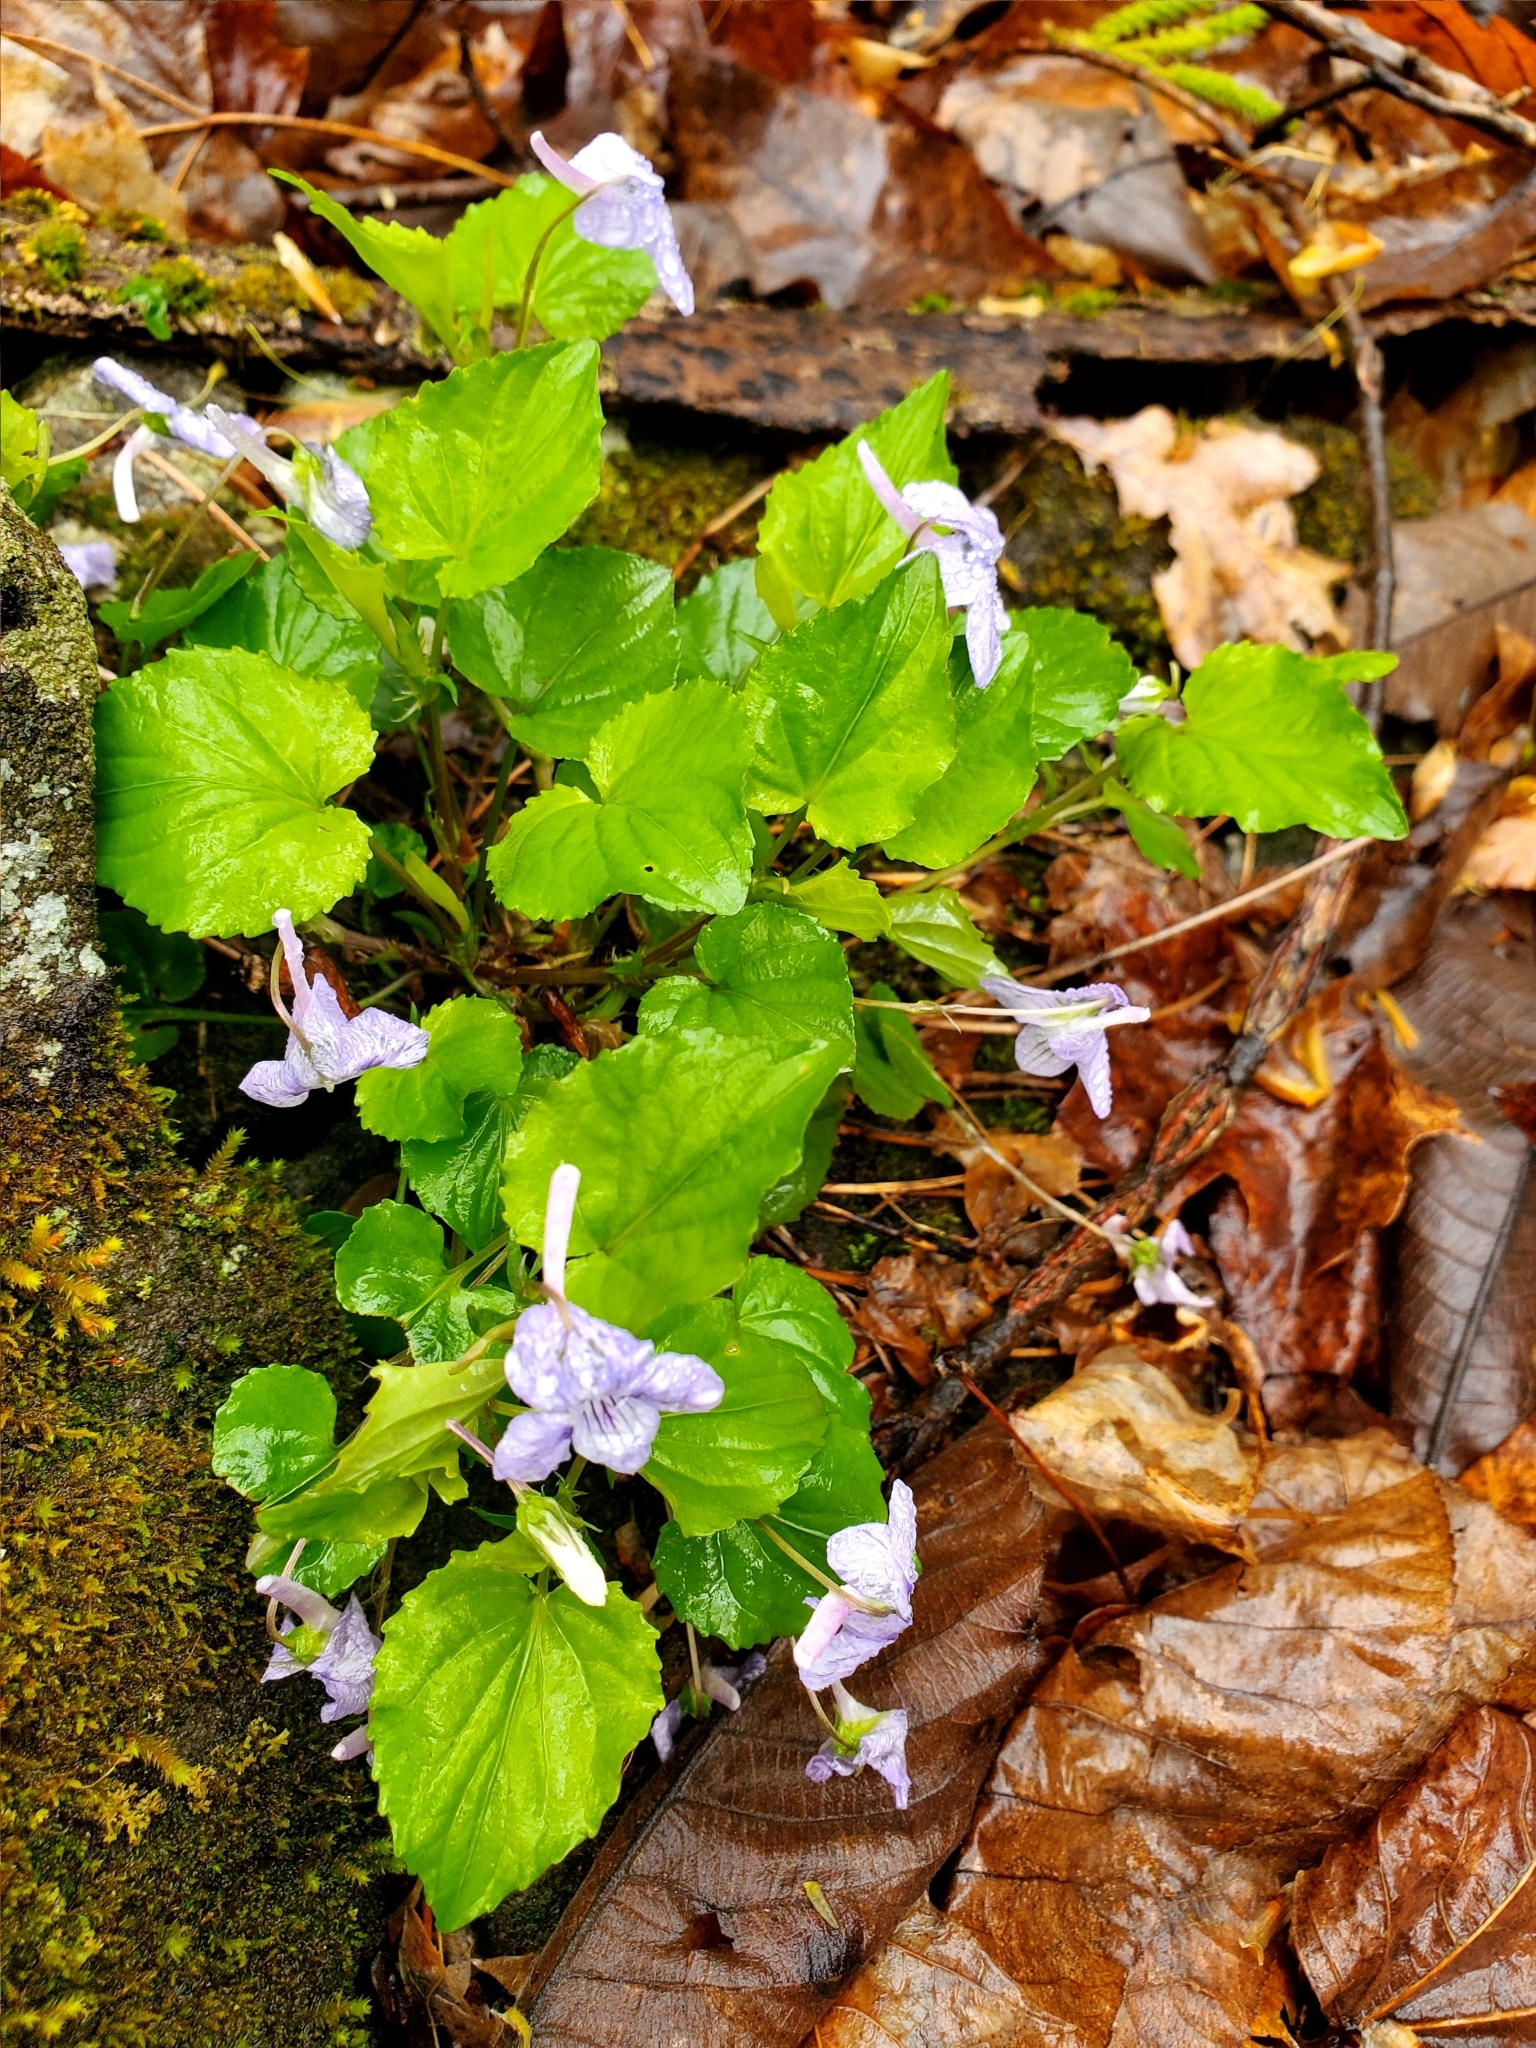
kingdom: Plantae
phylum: Tracheophyta
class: Magnoliopsida
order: Malpighiales
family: Violaceae
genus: Viola
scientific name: Viola rostrata
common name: Long-spur violet
